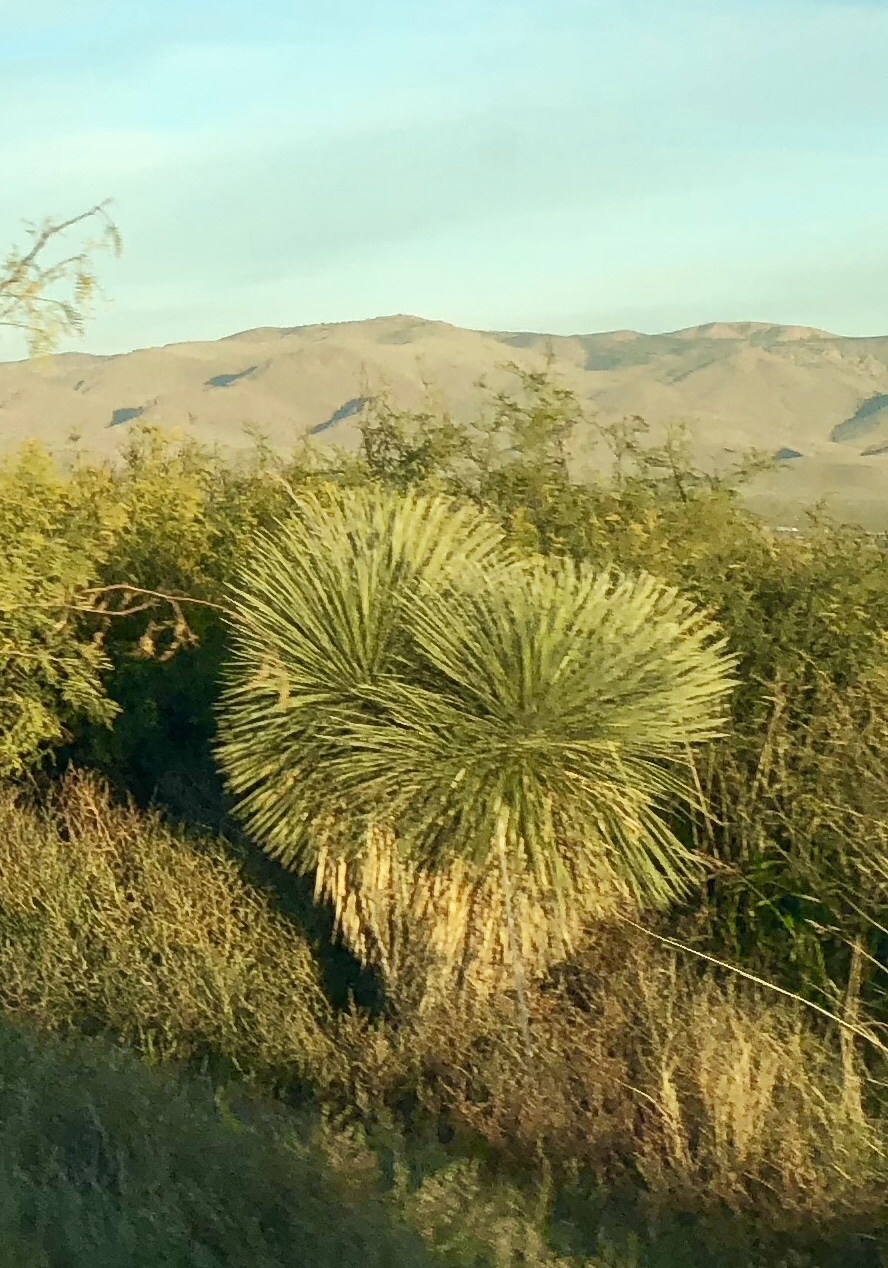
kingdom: Plantae
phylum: Tracheophyta
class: Liliopsida
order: Asparagales
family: Asparagaceae
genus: Yucca
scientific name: Yucca elata
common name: Palmella
